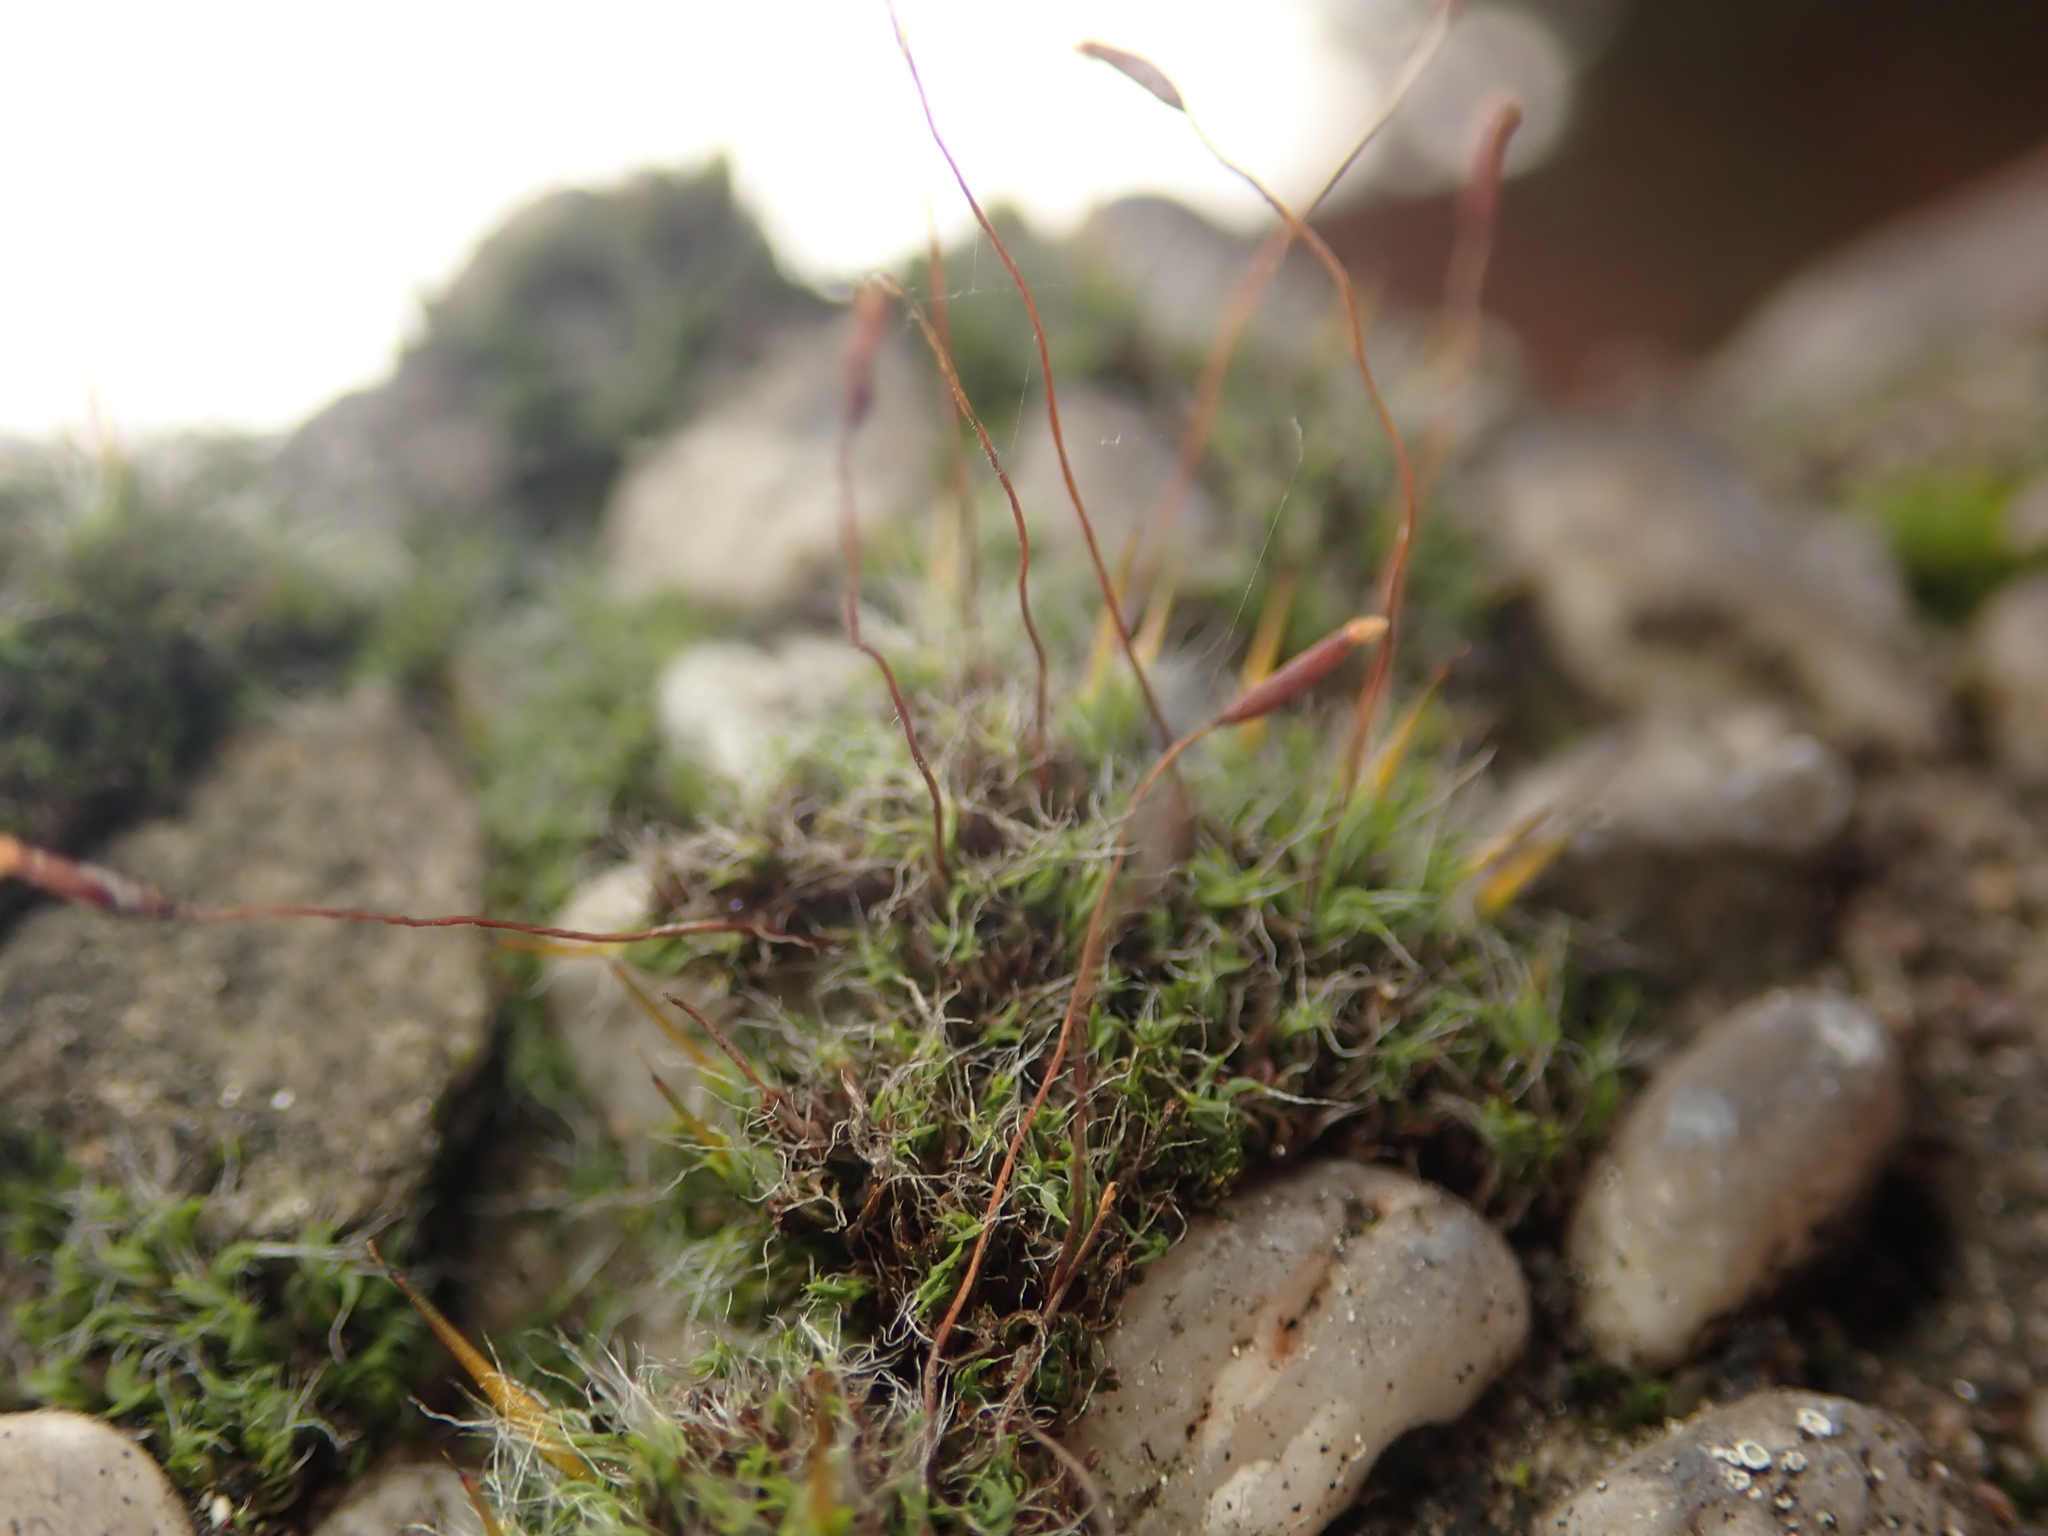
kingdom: Plantae
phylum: Bryophyta
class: Bryopsida
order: Pottiales
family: Pottiaceae
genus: Tortula
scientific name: Tortula muralis
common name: Wall screw-moss
